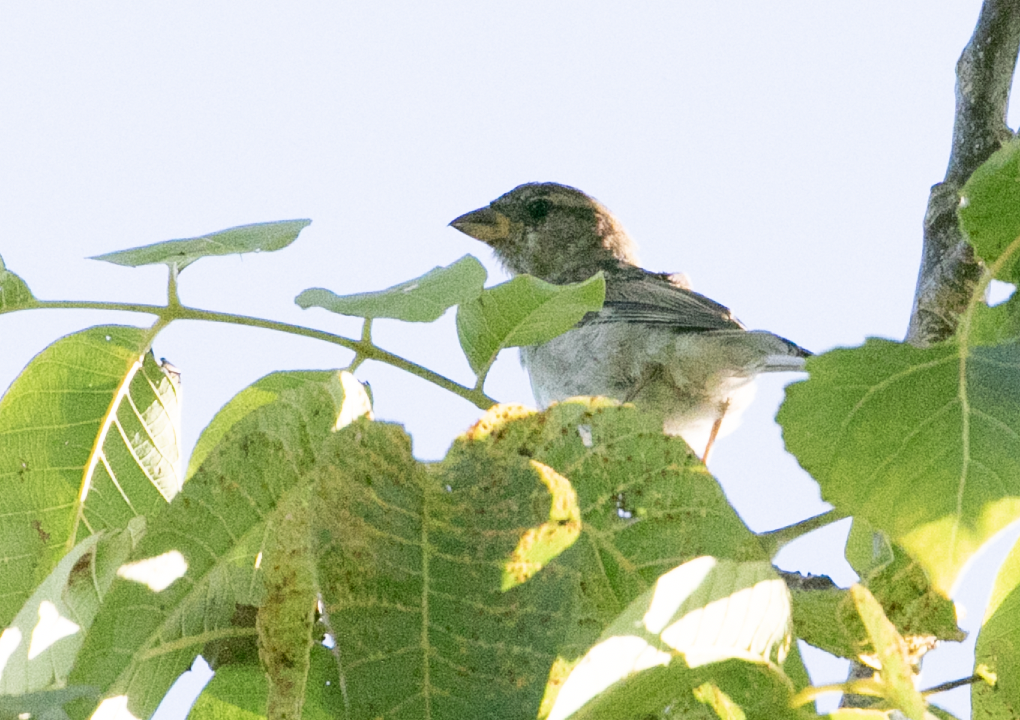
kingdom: Animalia
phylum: Chordata
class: Aves
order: Passeriformes
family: Passeridae
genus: Passer
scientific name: Passer italiae
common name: Italian sparrow
